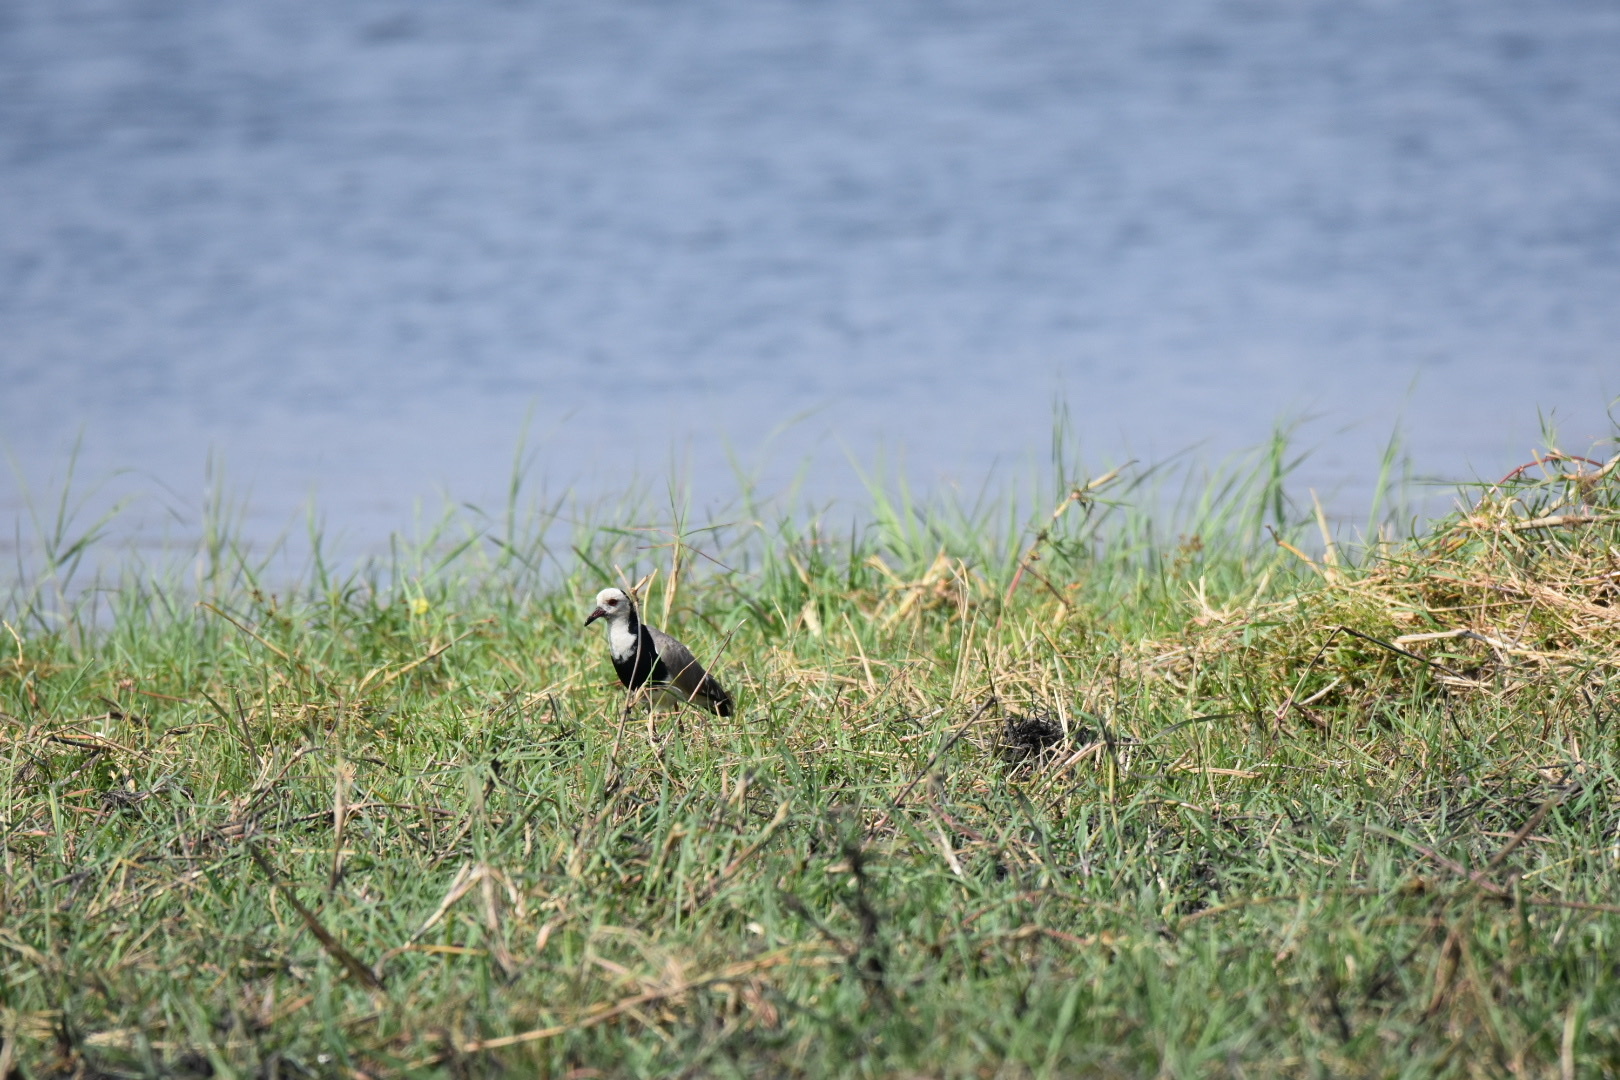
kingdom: Animalia
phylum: Chordata
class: Aves
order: Charadriiformes
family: Charadriidae
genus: Vanellus
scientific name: Vanellus crassirostris
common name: Long-toed lapwing
